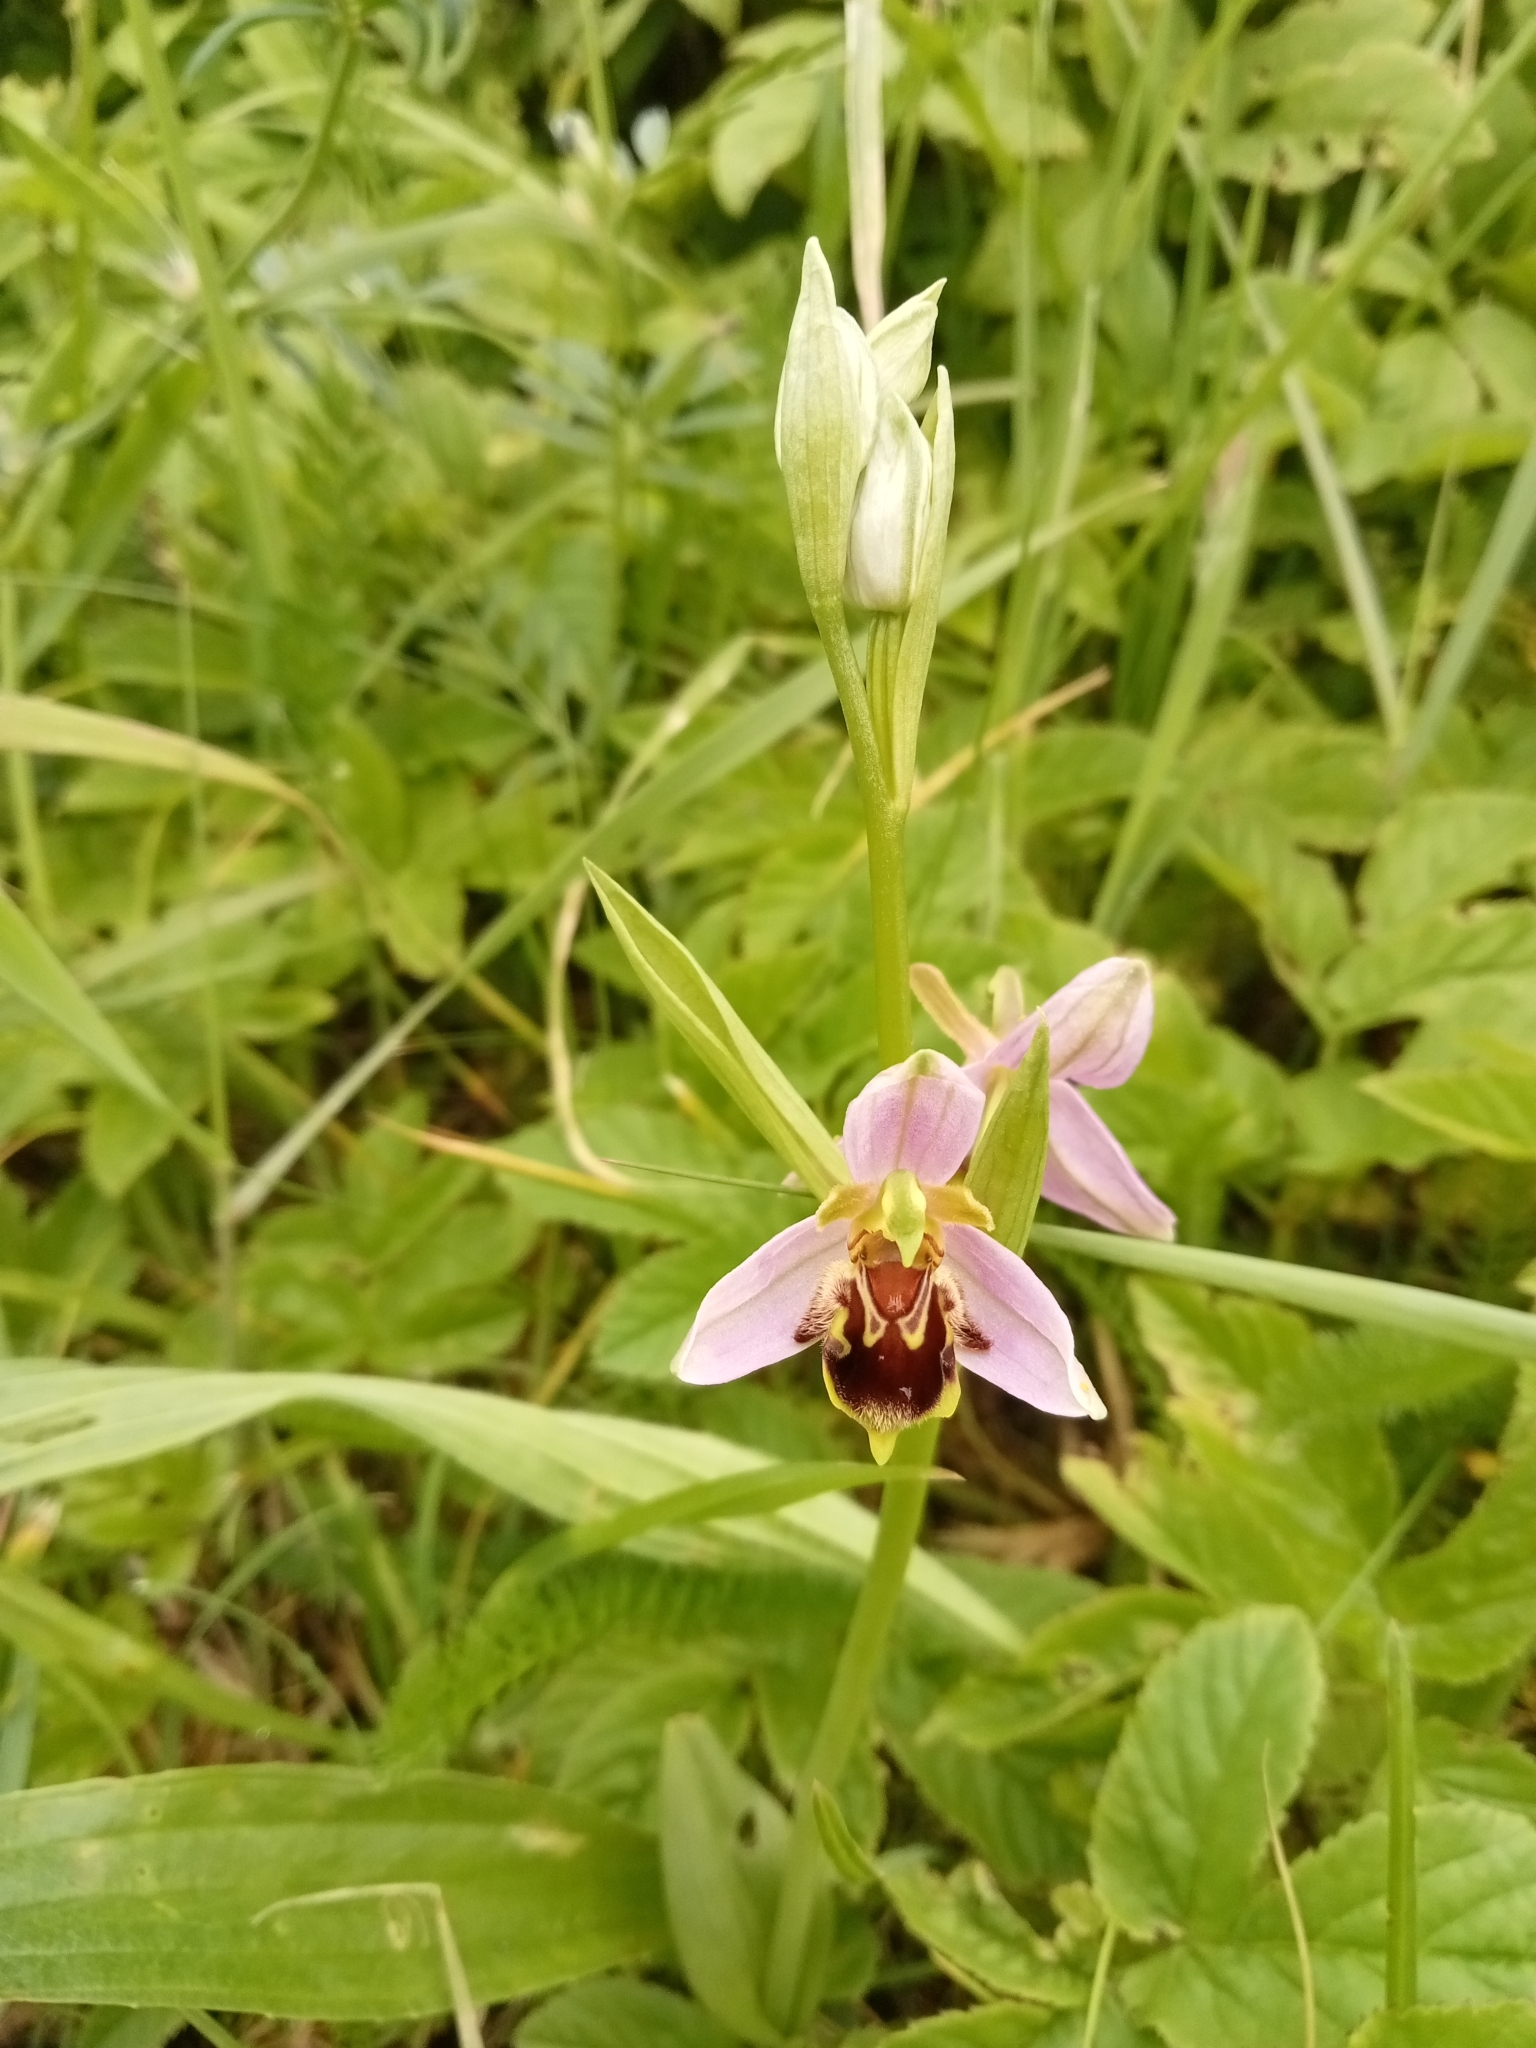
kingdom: Plantae
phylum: Tracheophyta
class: Liliopsida
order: Asparagales
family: Orchidaceae
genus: Ophrys
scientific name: Ophrys apifera
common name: Bee orchid
